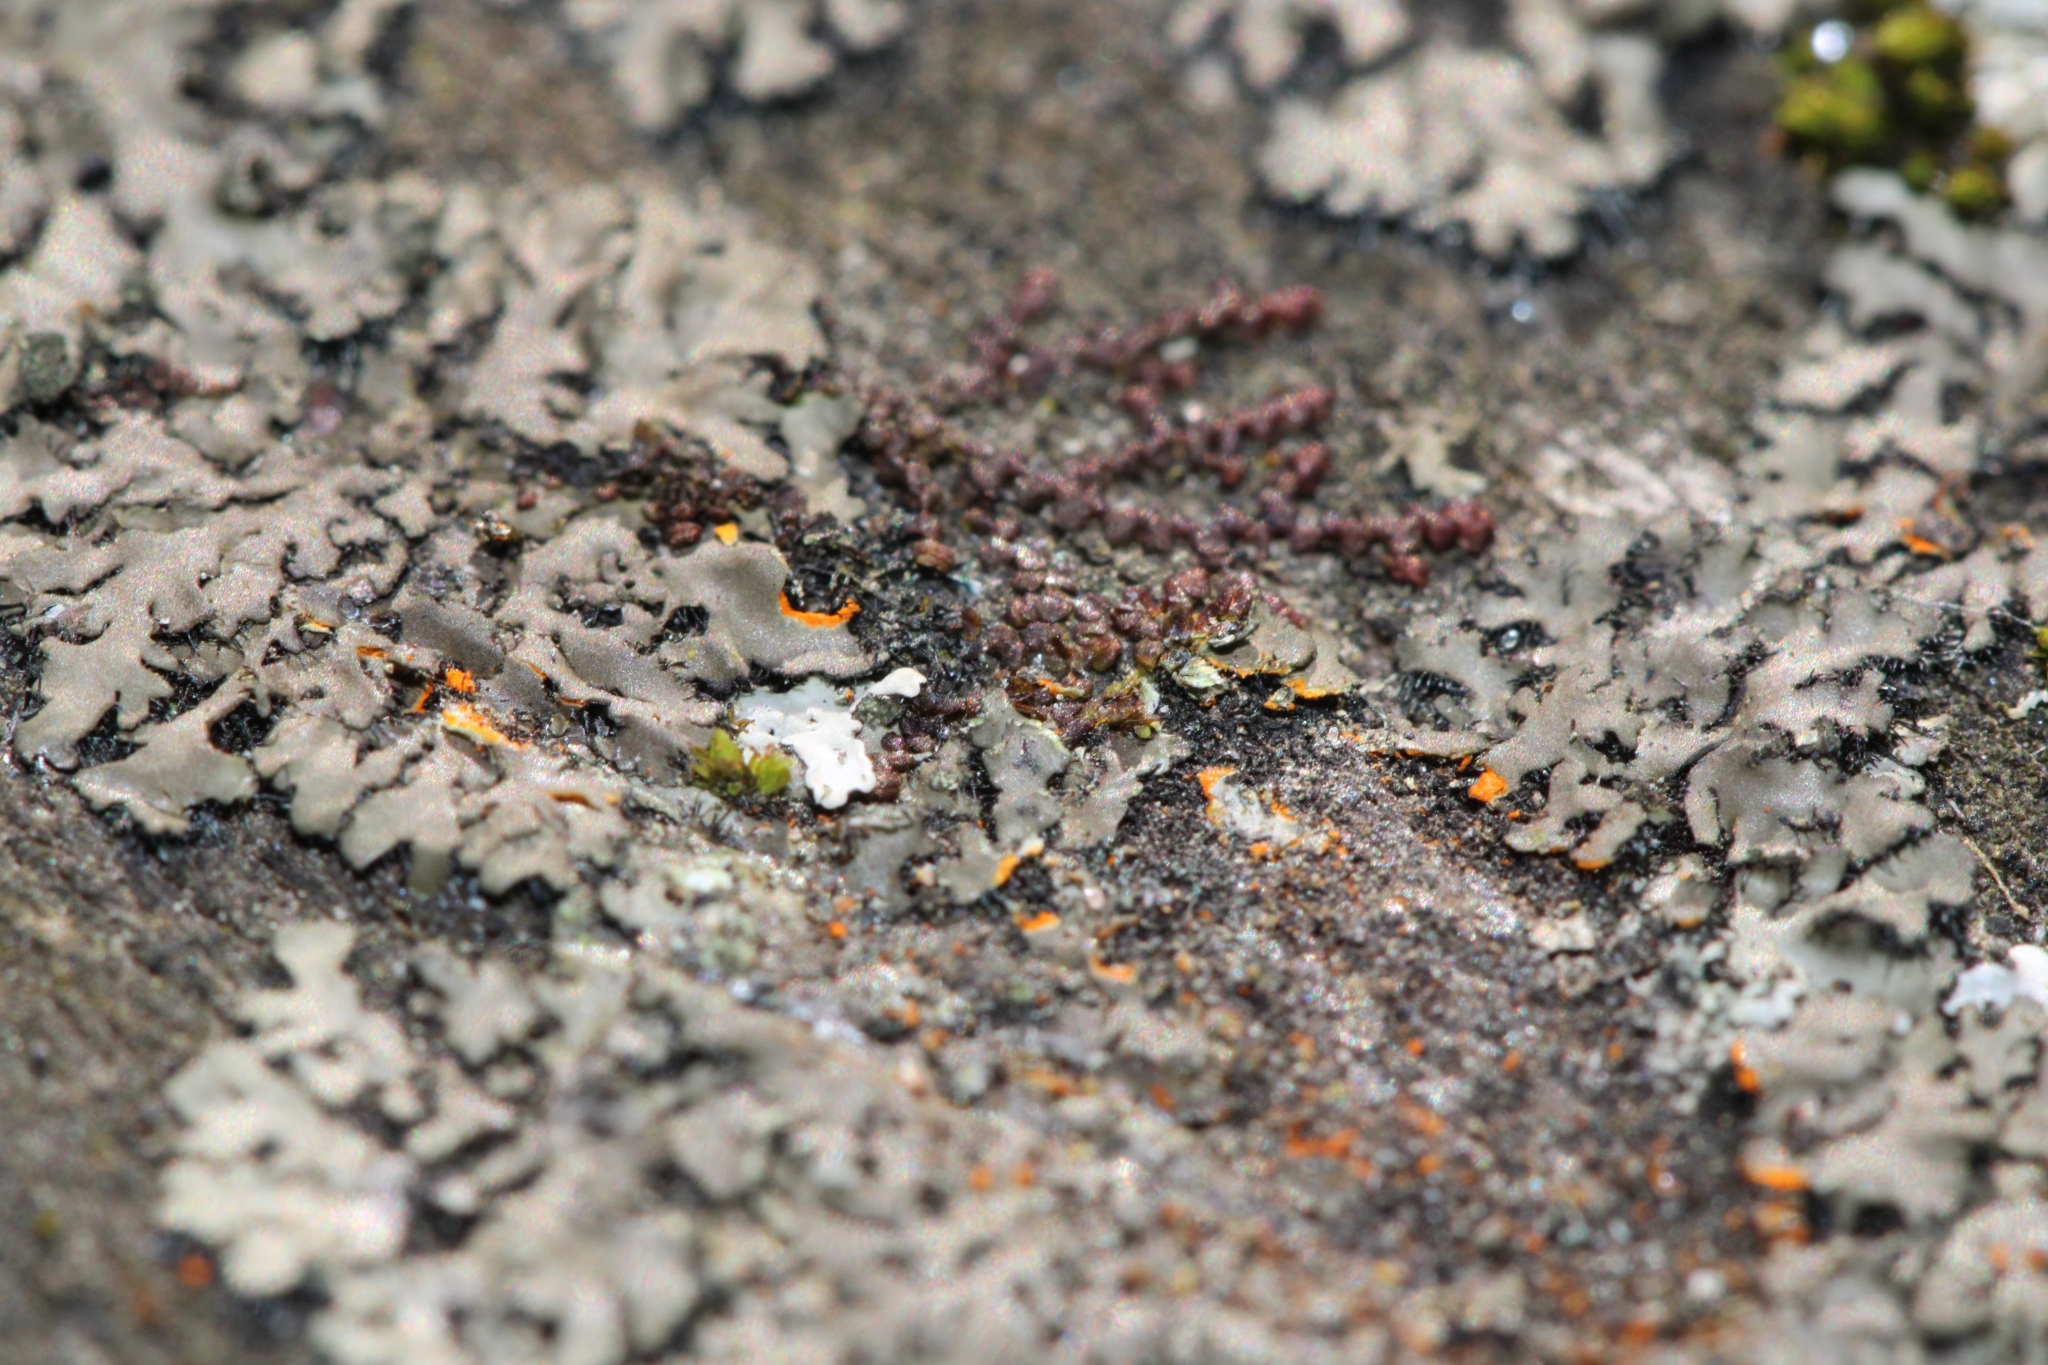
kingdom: Fungi
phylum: Ascomycota
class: Lecanoromycetes
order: Caliciales
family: Physciaceae
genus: Phaeophyscia
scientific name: Phaeophyscia rubropulchra
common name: Orange-cored shadow lichen
